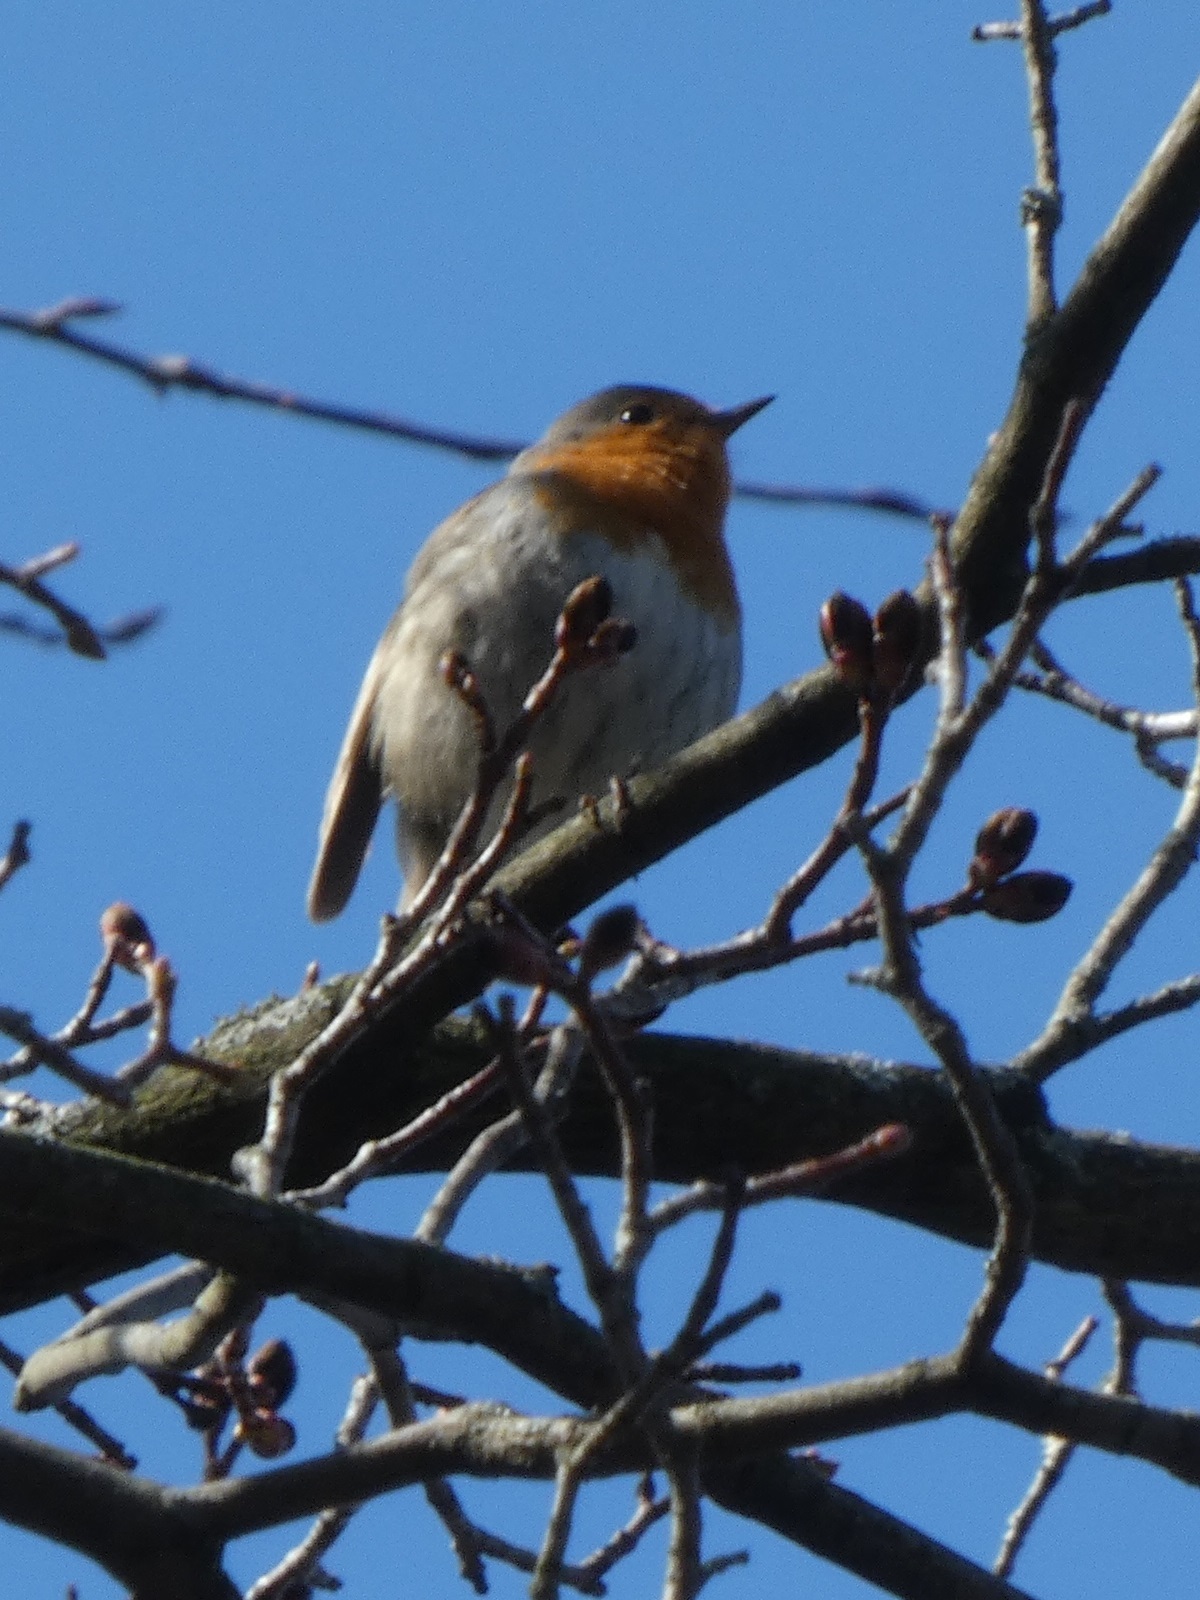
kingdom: Animalia
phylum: Chordata
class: Aves
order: Passeriformes
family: Muscicapidae
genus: Erithacus
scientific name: Erithacus rubecula
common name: European robin
